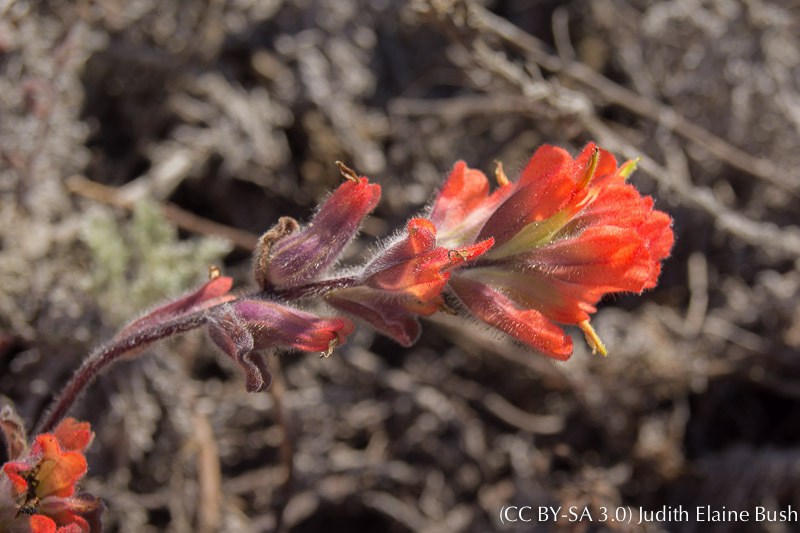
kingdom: Plantae
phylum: Tracheophyta
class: Magnoliopsida
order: Lamiales
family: Orobanchaceae
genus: Castilleja
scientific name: Castilleja latifolia
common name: Monterey indian paintbrush
